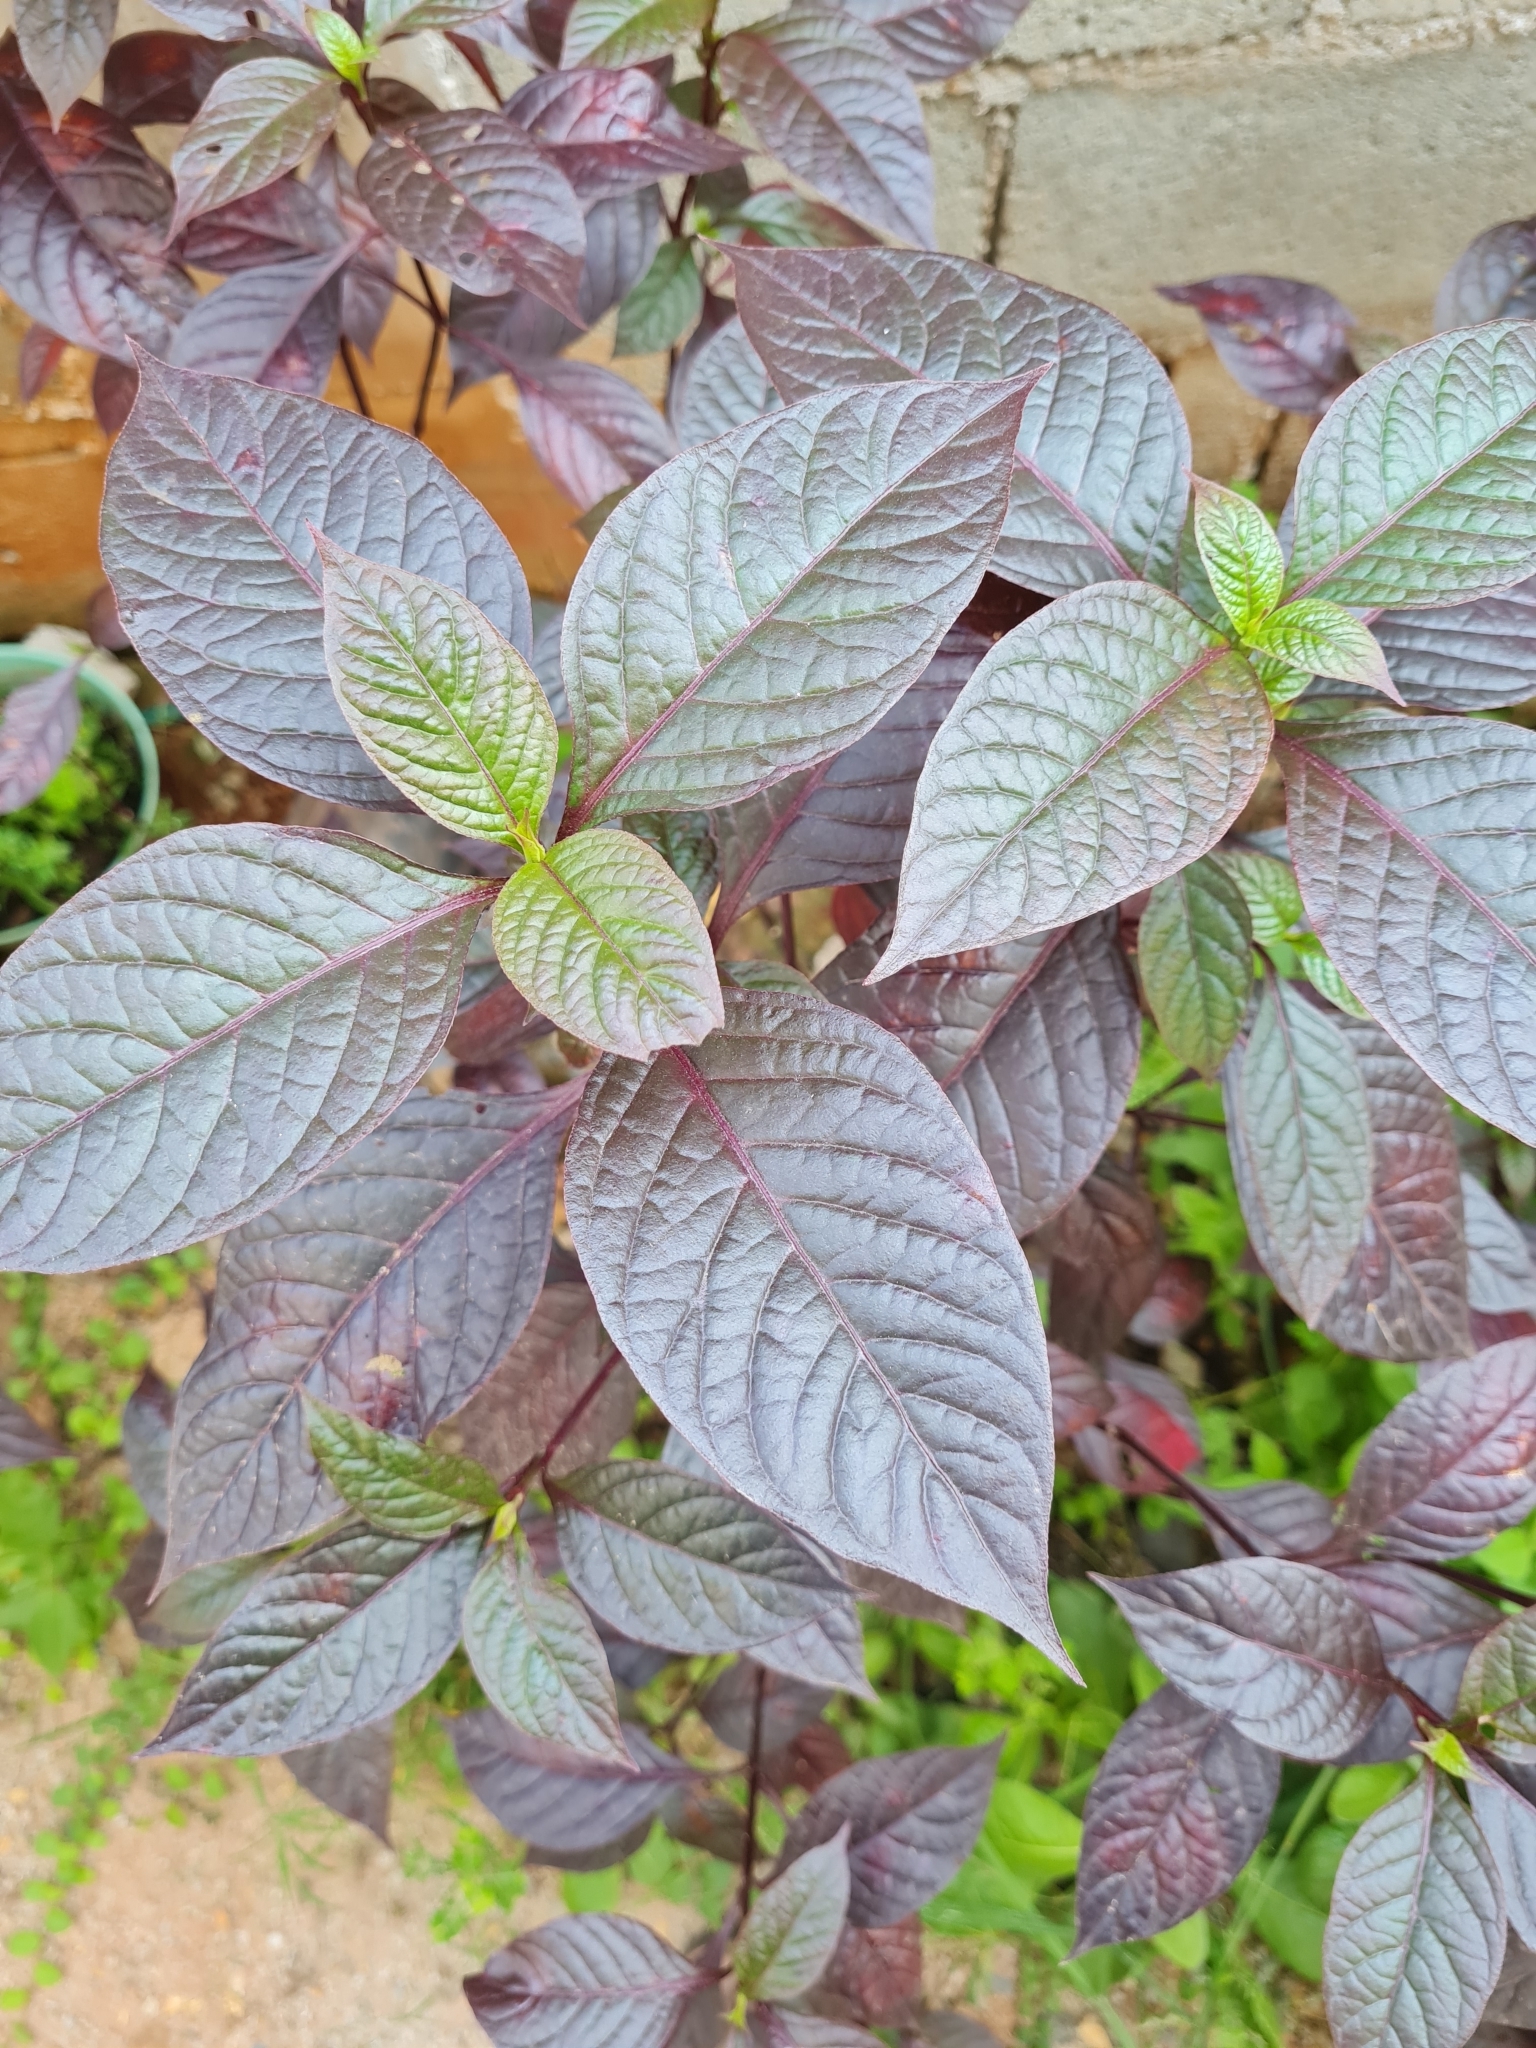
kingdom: Plantae
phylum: Tracheophyta
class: Magnoliopsida
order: Caryophyllales
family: Amaranthaceae
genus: Alternanthera
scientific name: Alternanthera brasiliana
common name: Brazilian joyweed
